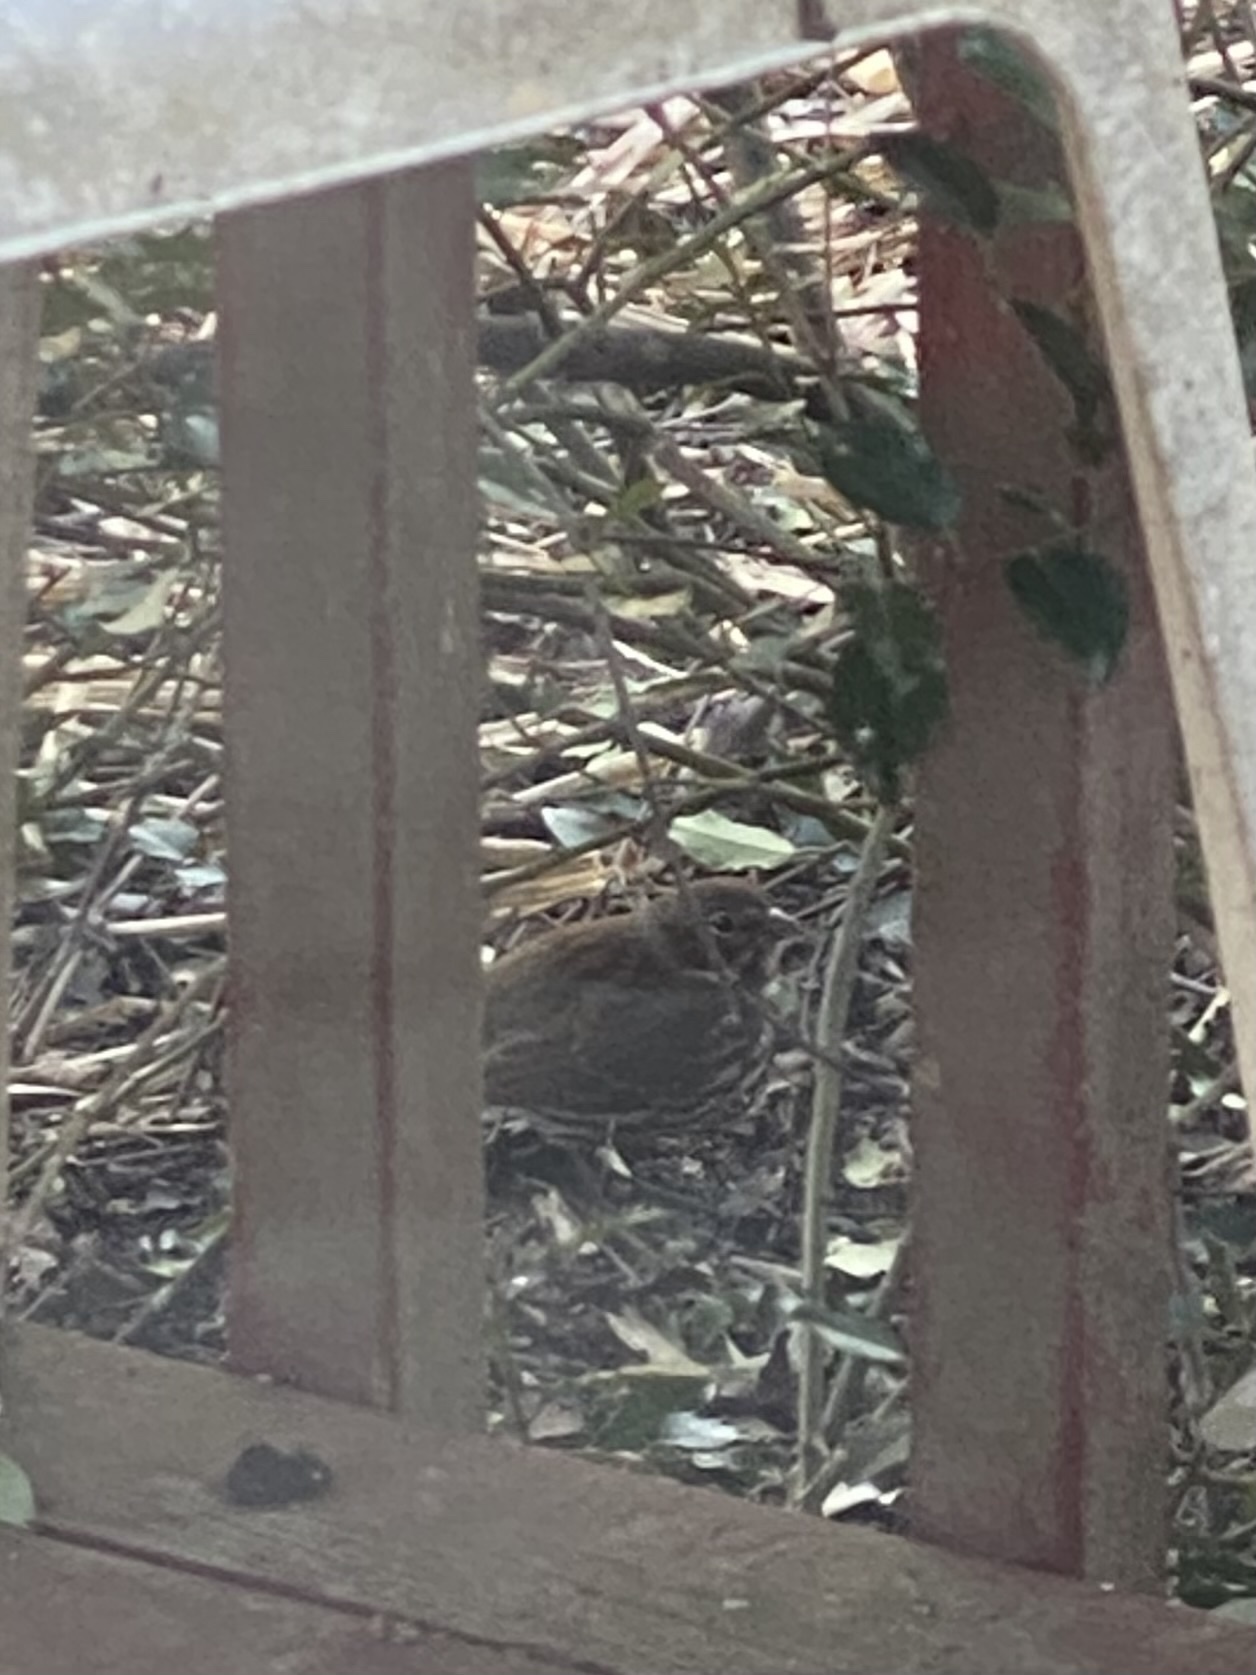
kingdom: Animalia
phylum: Chordata
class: Aves
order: Passeriformes
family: Passerellidae
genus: Passerella
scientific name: Passerella iliaca
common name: Fox sparrow
